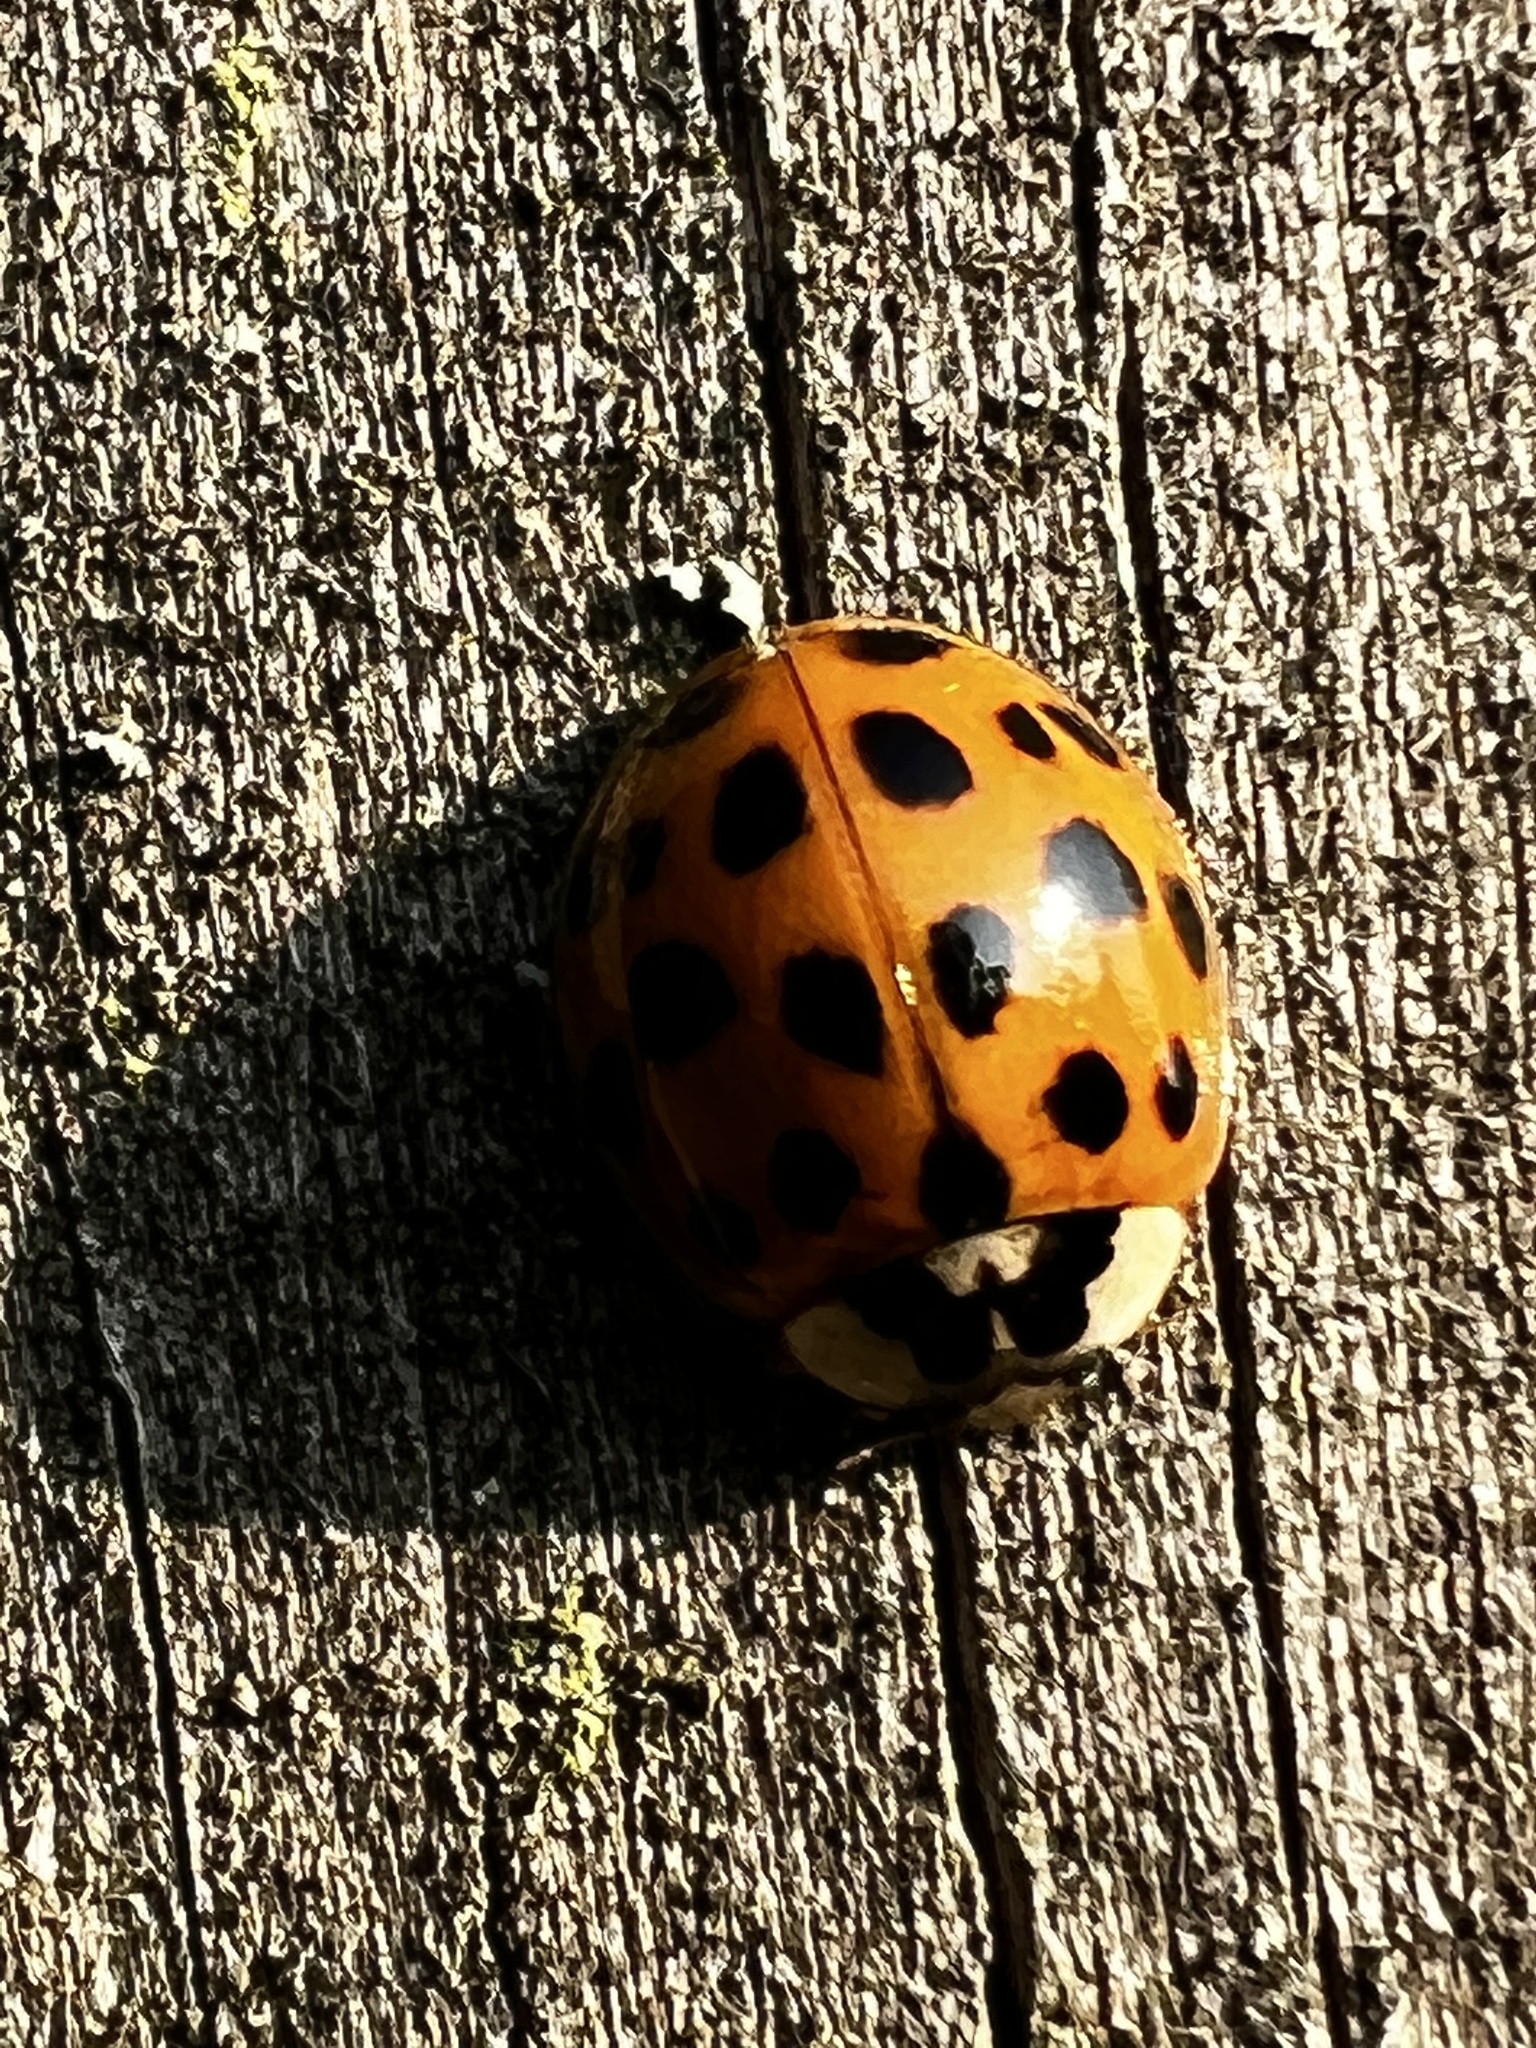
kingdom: Animalia
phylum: Arthropoda
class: Insecta
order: Coleoptera
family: Coccinellidae
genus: Harmonia
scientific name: Harmonia axyridis
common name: Harlequin ladybird
